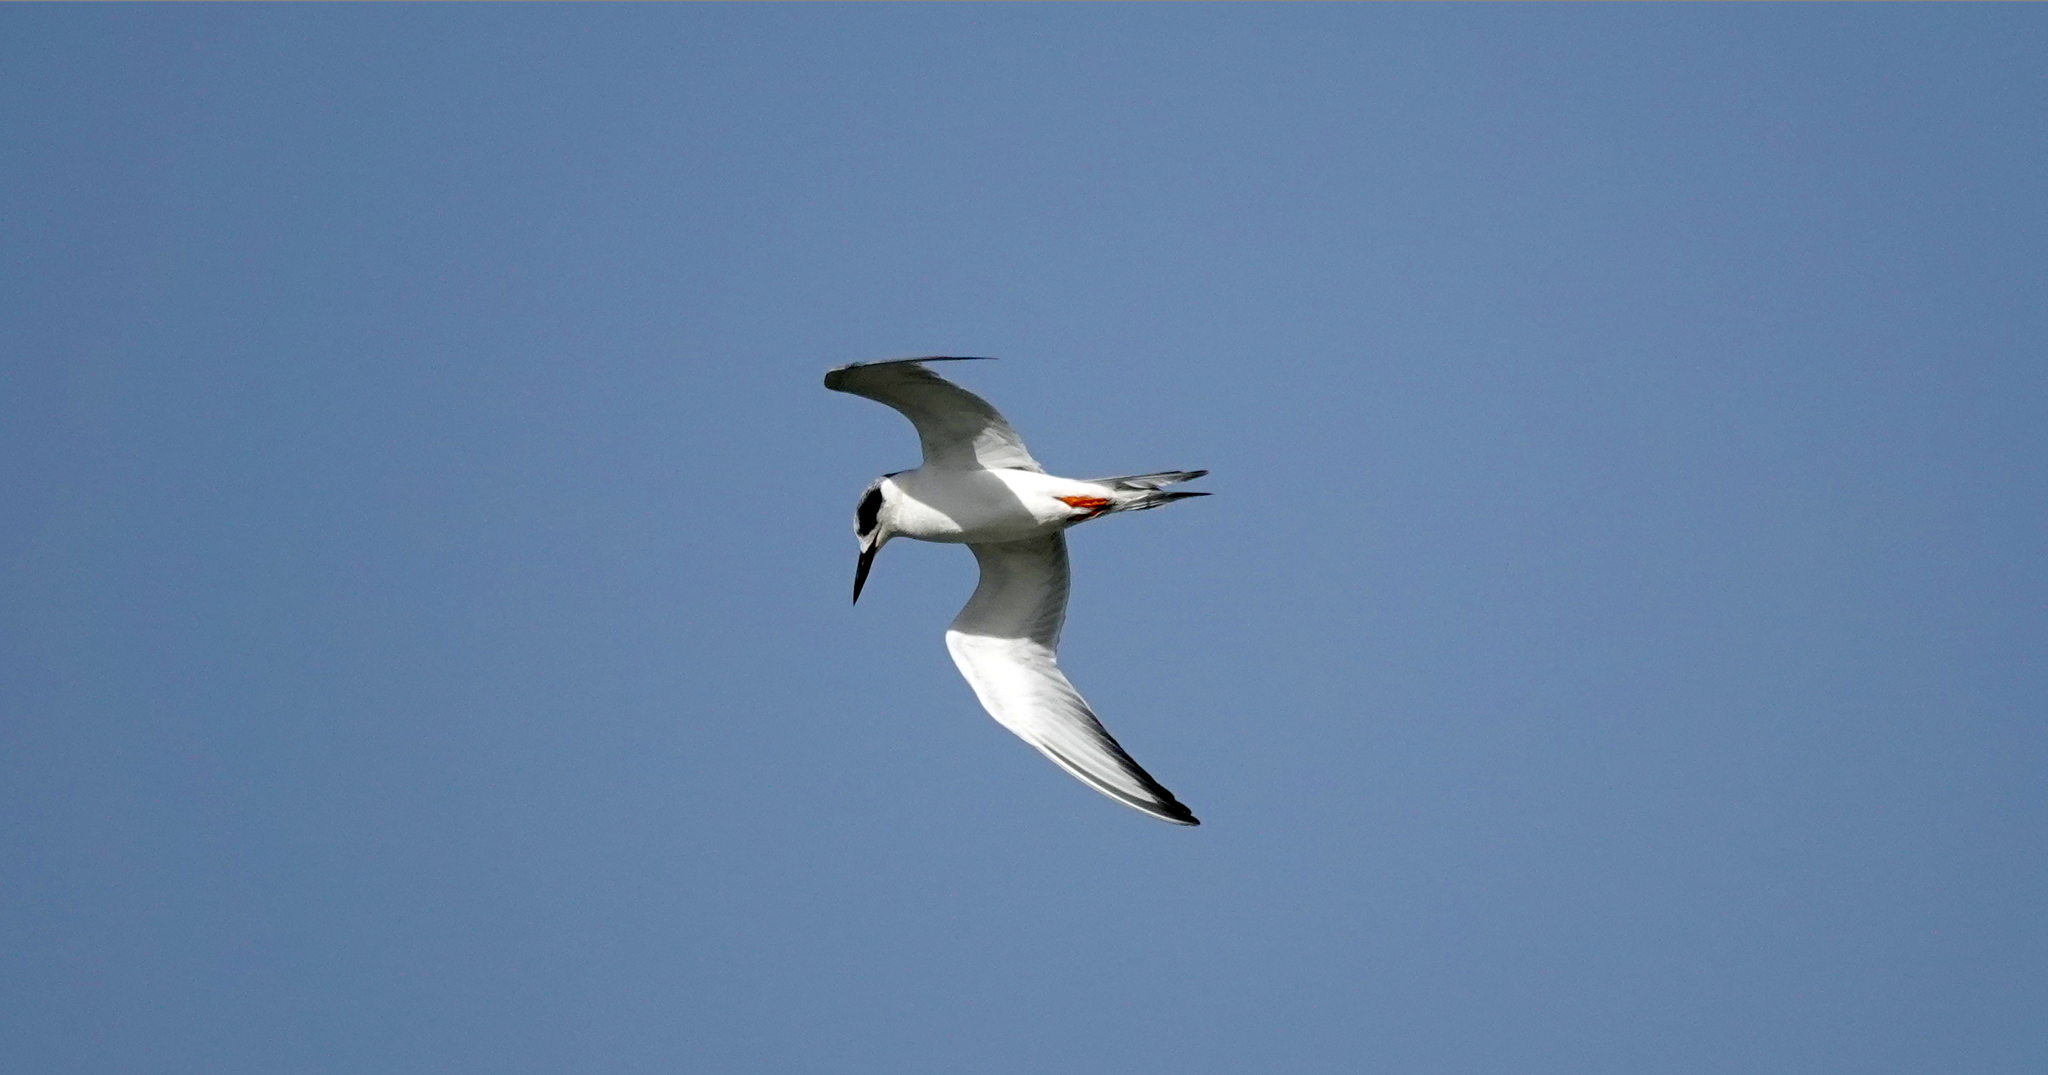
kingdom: Animalia
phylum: Chordata
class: Aves
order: Charadriiformes
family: Laridae
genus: Sterna
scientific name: Sterna forsteri
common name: Forster's tern
